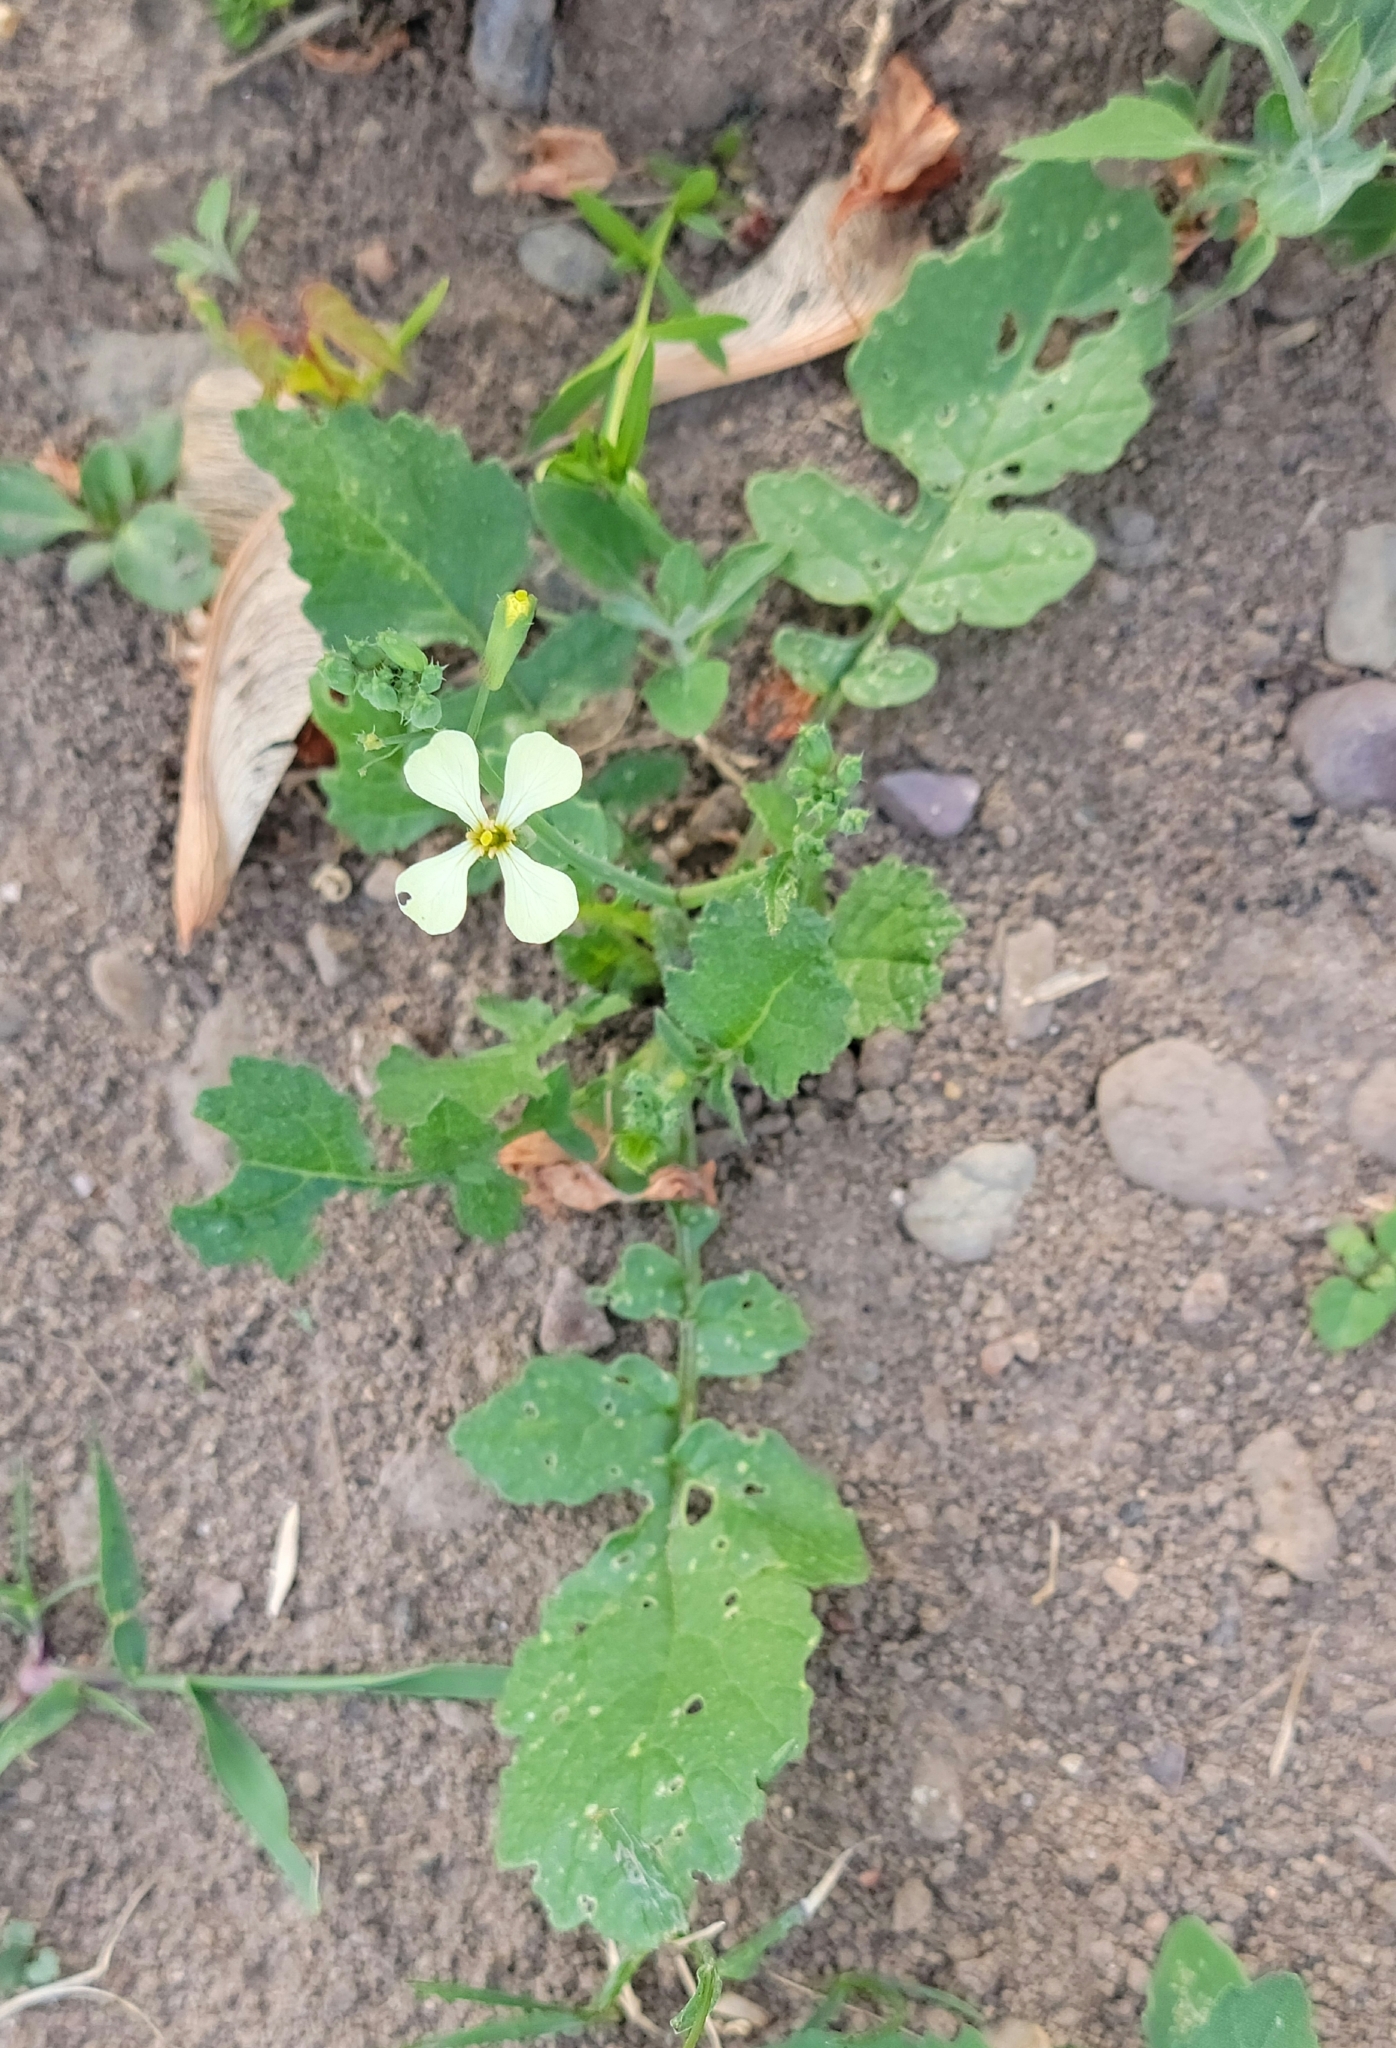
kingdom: Plantae
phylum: Tracheophyta
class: Magnoliopsida
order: Brassicales
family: Brassicaceae
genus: Raphanus
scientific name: Raphanus raphanistrum
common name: Wild radish
